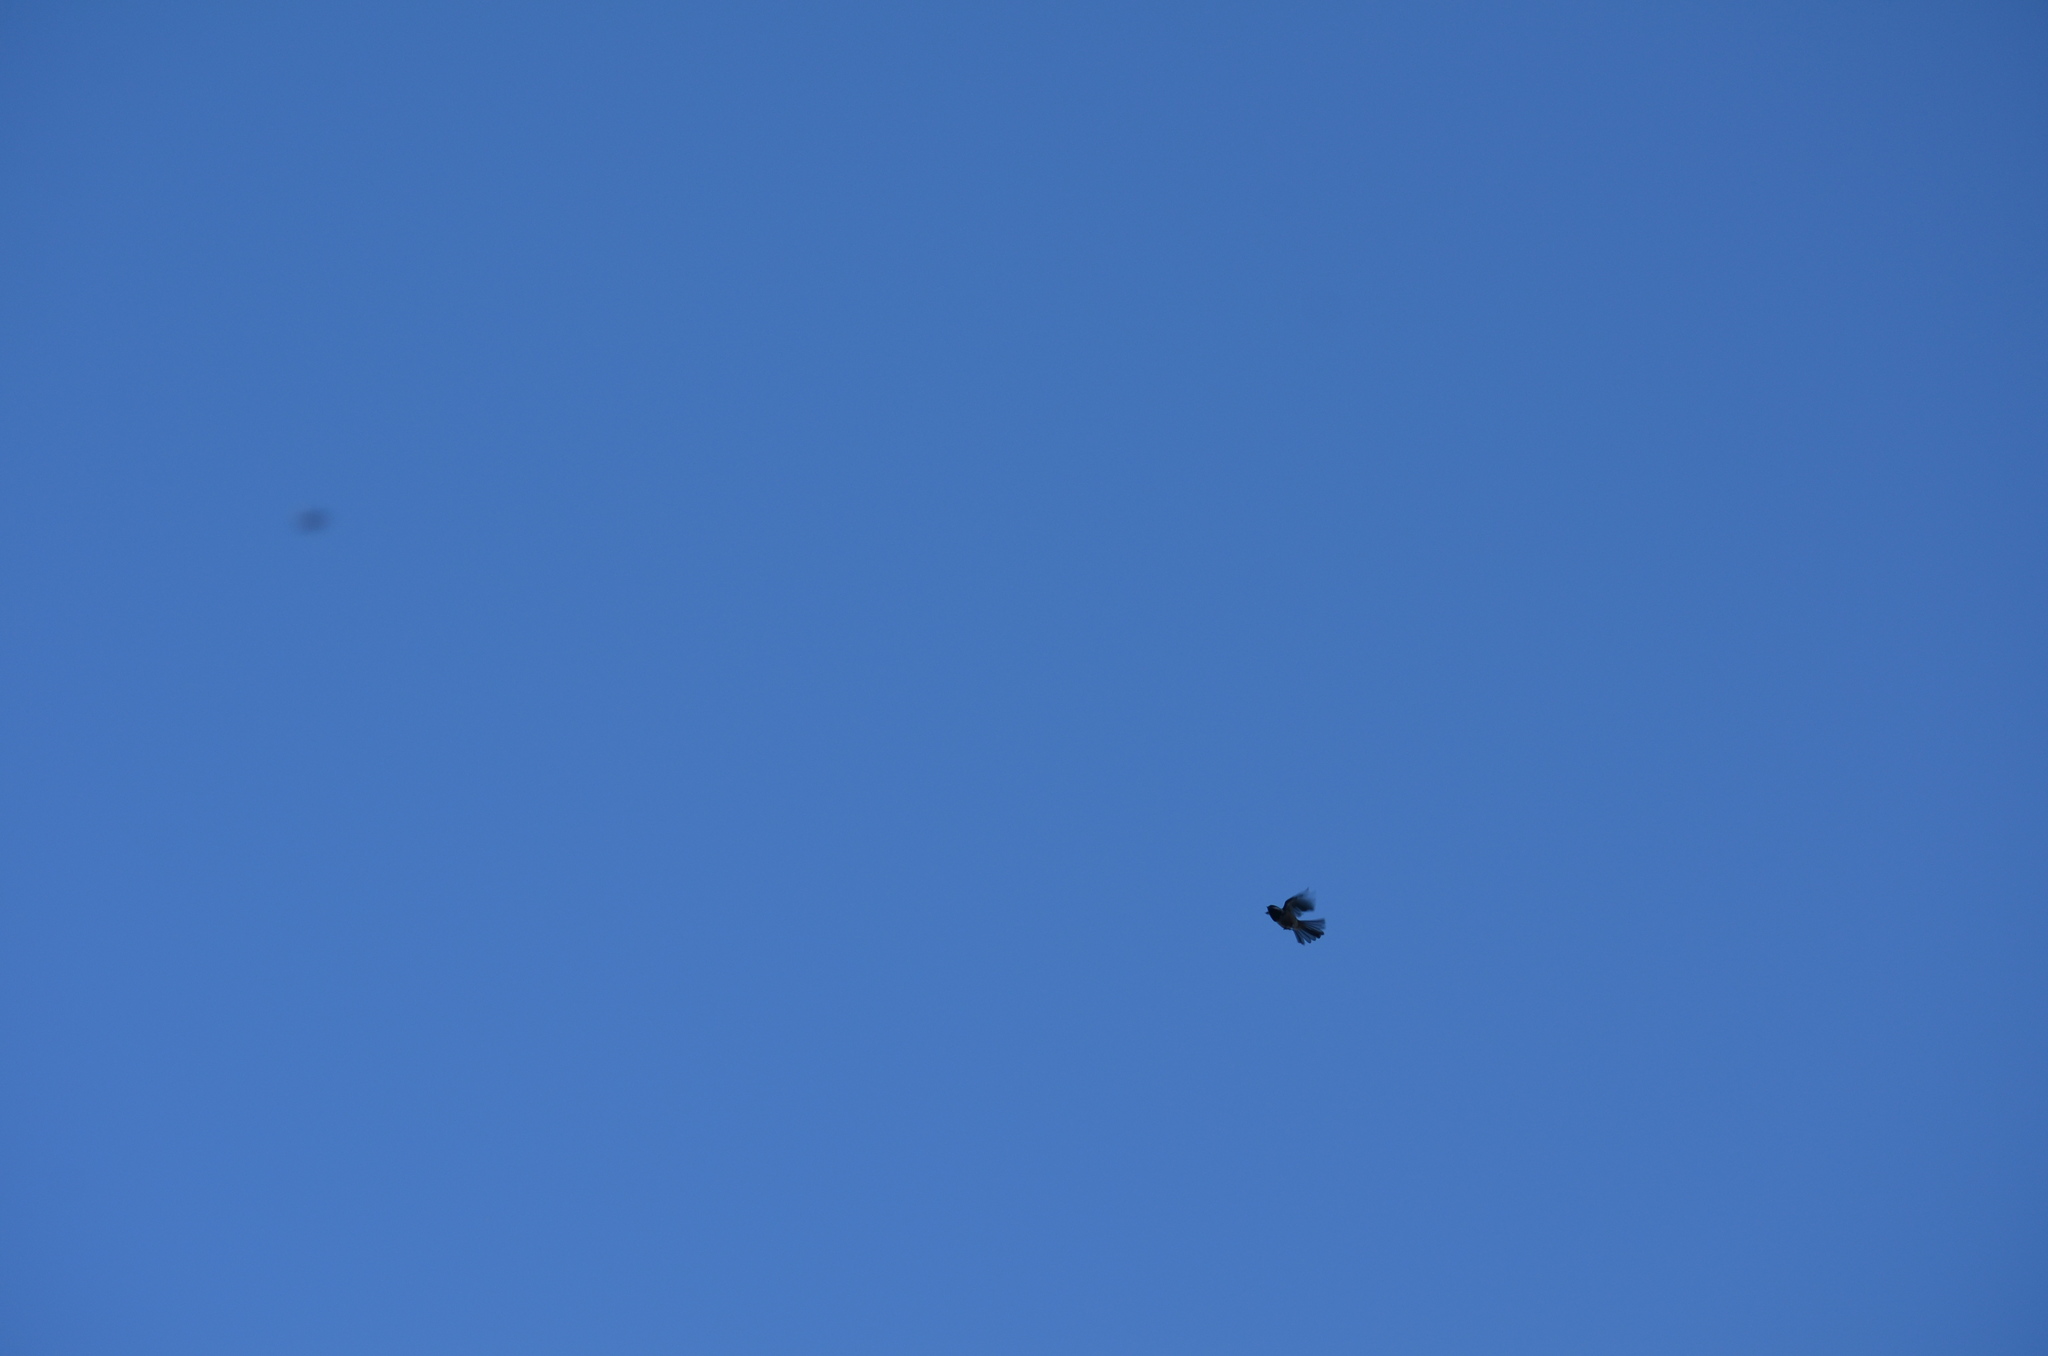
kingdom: Animalia
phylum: Chordata
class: Aves
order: Passeriformes
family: Paridae
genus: Poecile
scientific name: Poecile atricapillus
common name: Black-capped chickadee
